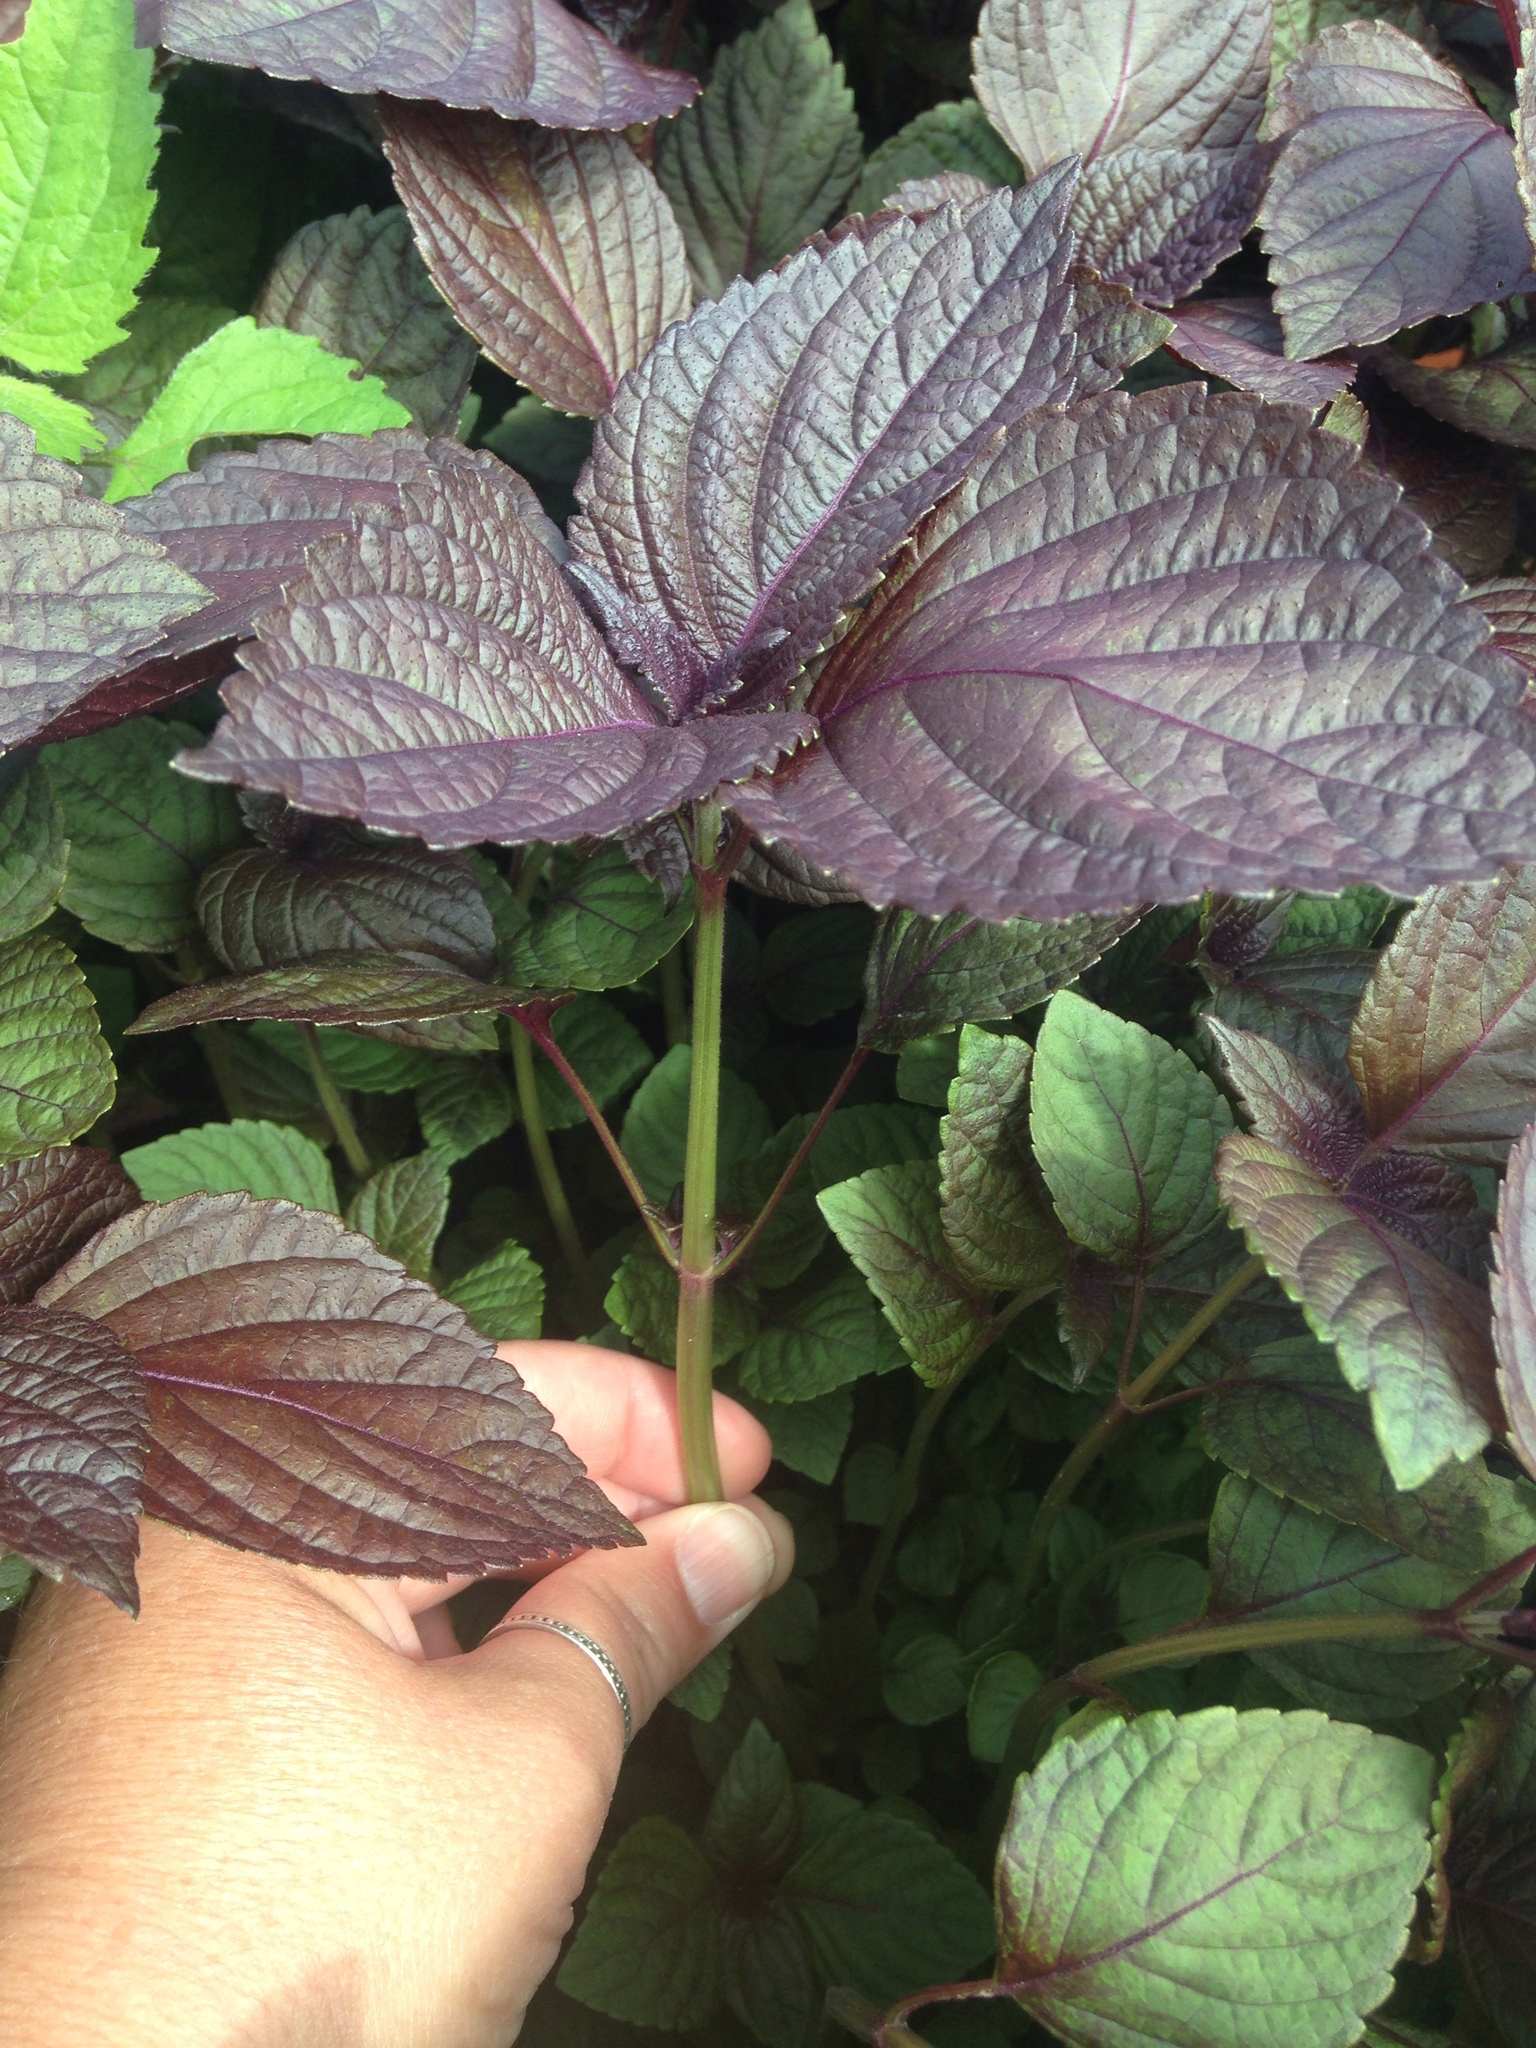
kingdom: Plantae
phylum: Tracheophyta
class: Magnoliopsida
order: Lamiales
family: Lamiaceae
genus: Perilla
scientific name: Perilla frutescens
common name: Perilla
